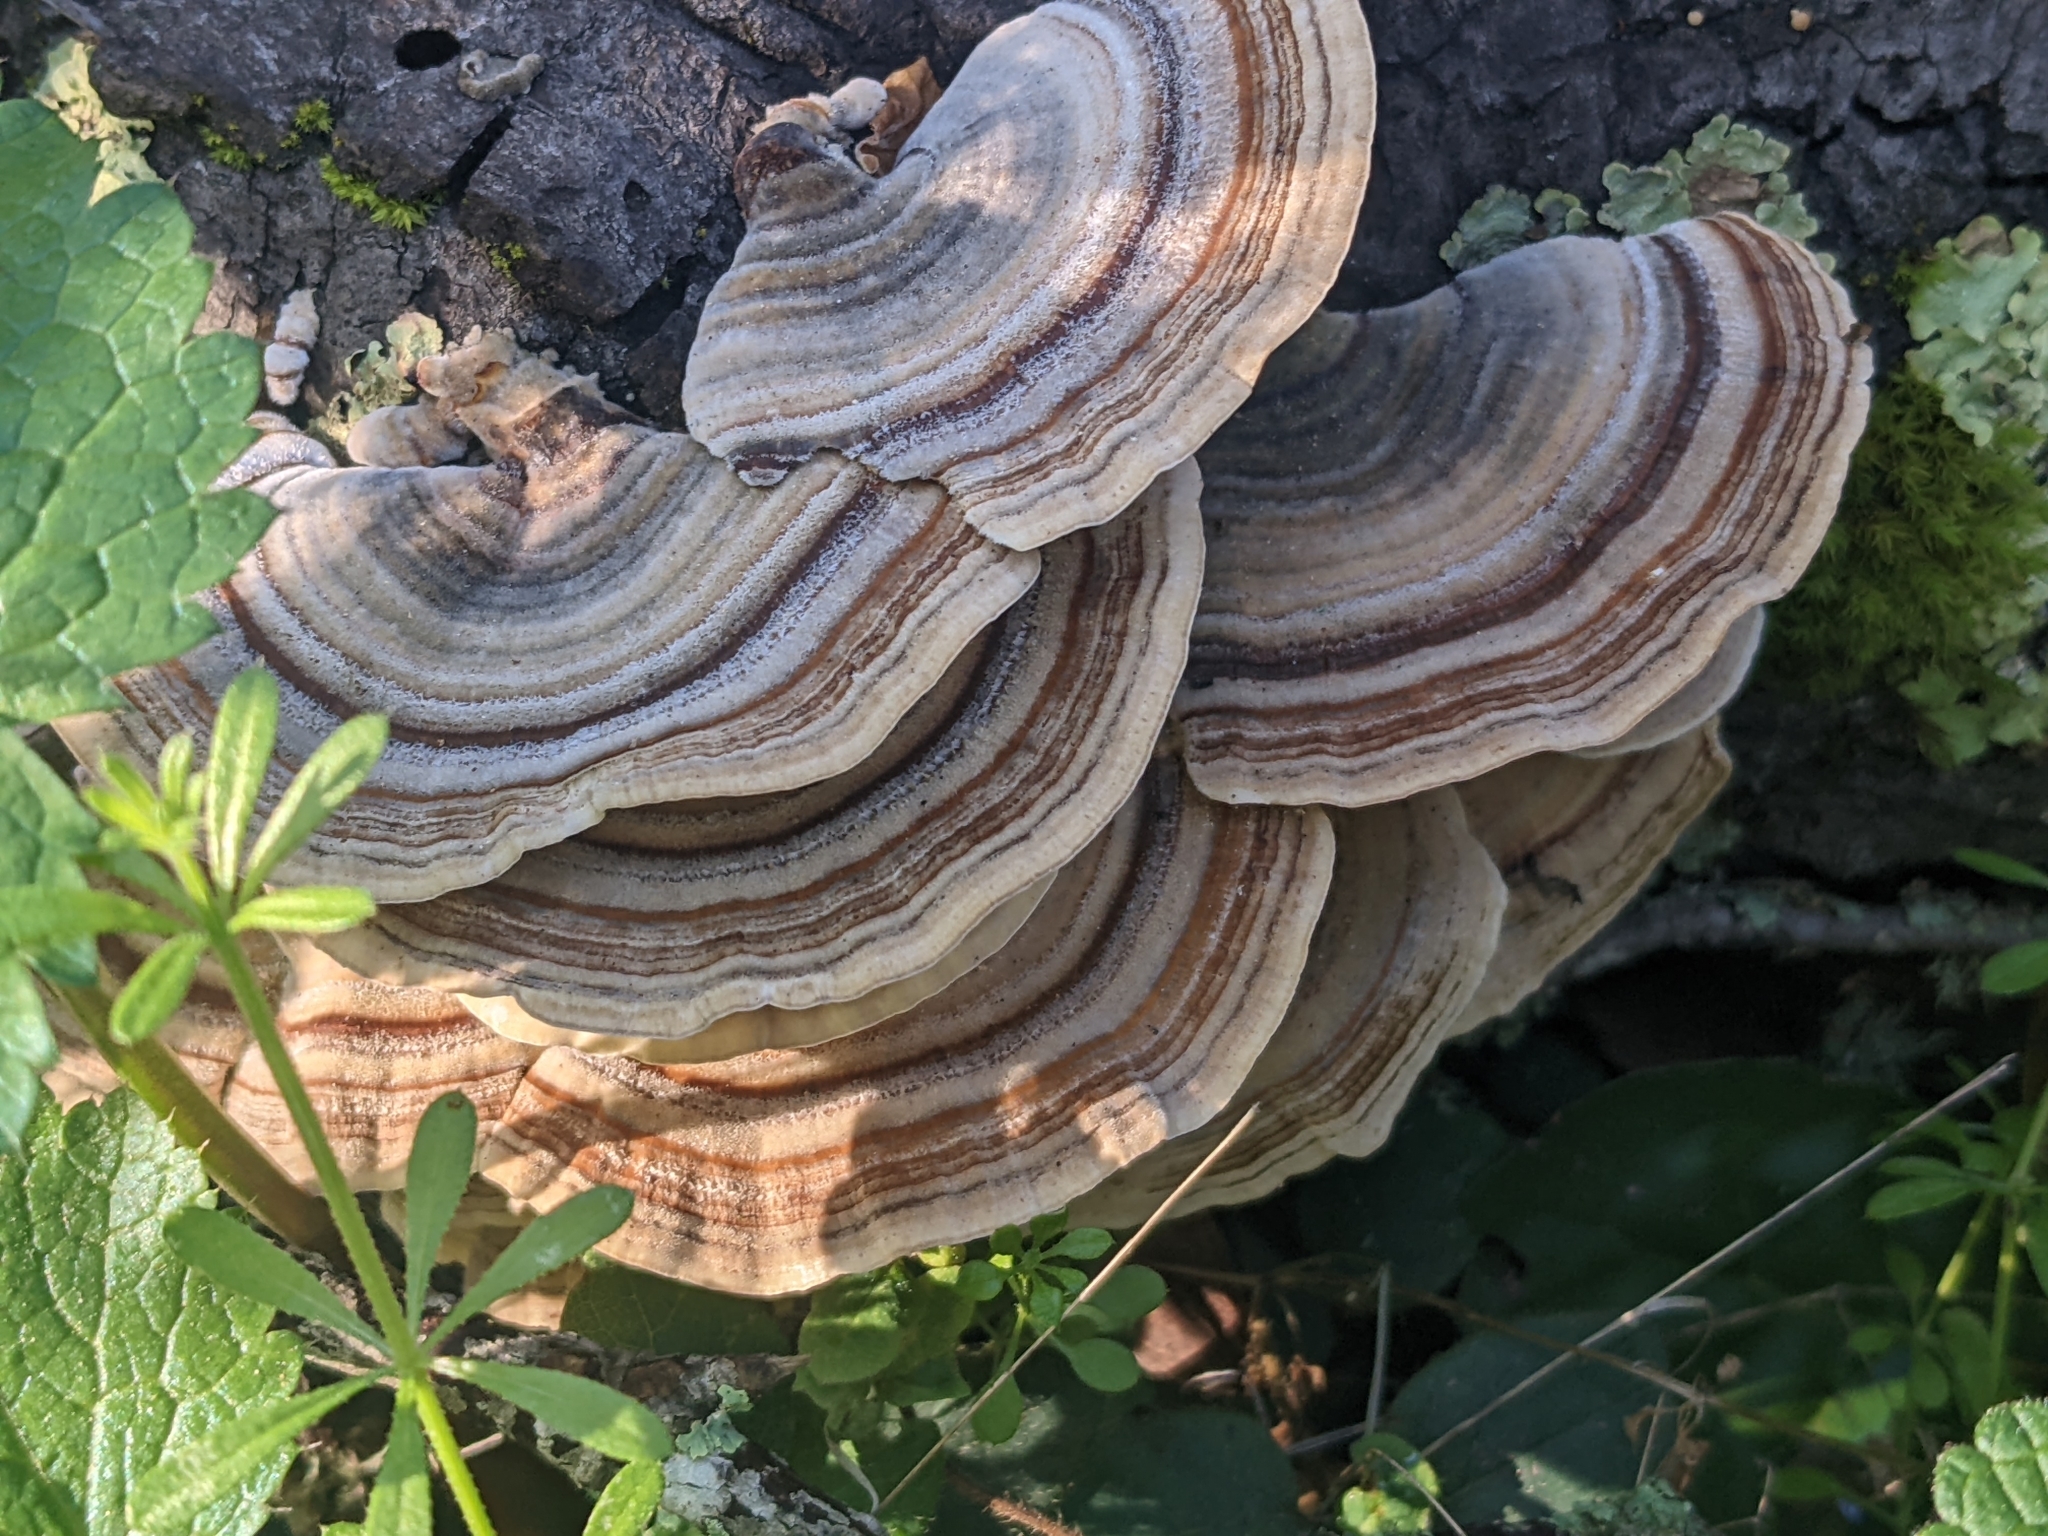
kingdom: Fungi
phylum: Basidiomycota
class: Agaricomycetes
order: Polyporales
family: Polyporaceae
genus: Trametes
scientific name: Trametes versicolor
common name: Turkeytail
